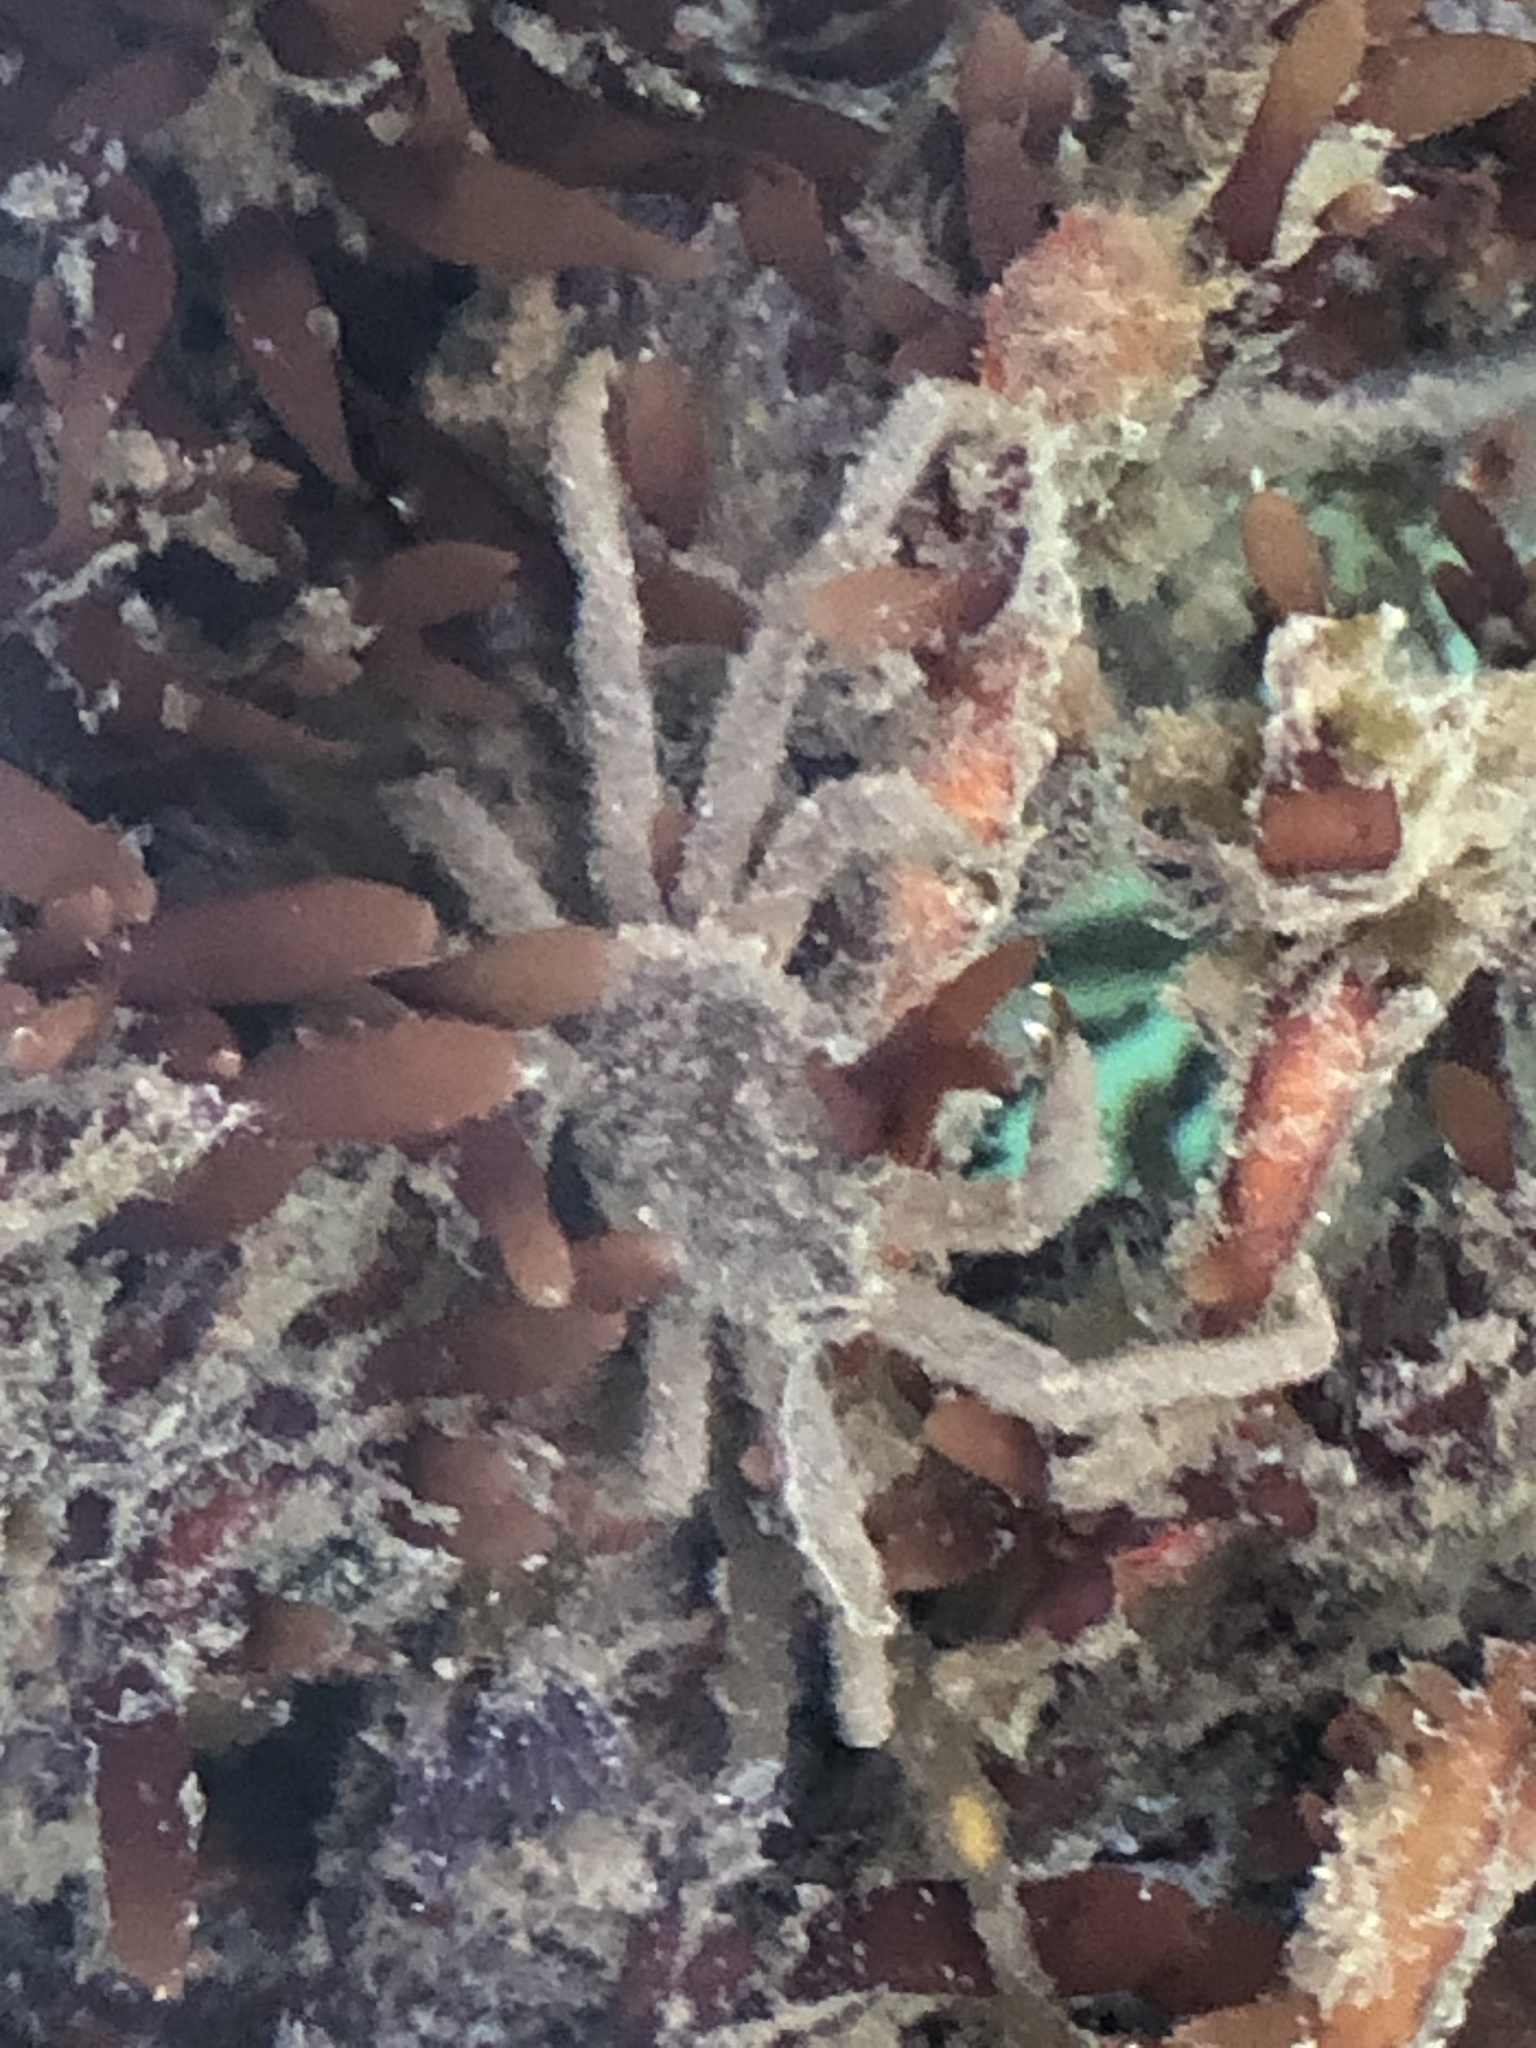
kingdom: Animalia
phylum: Arthropoda
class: Malacostraca
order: Decapoda
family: Epialtidae
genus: Pugettia
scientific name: Pugettia producta
